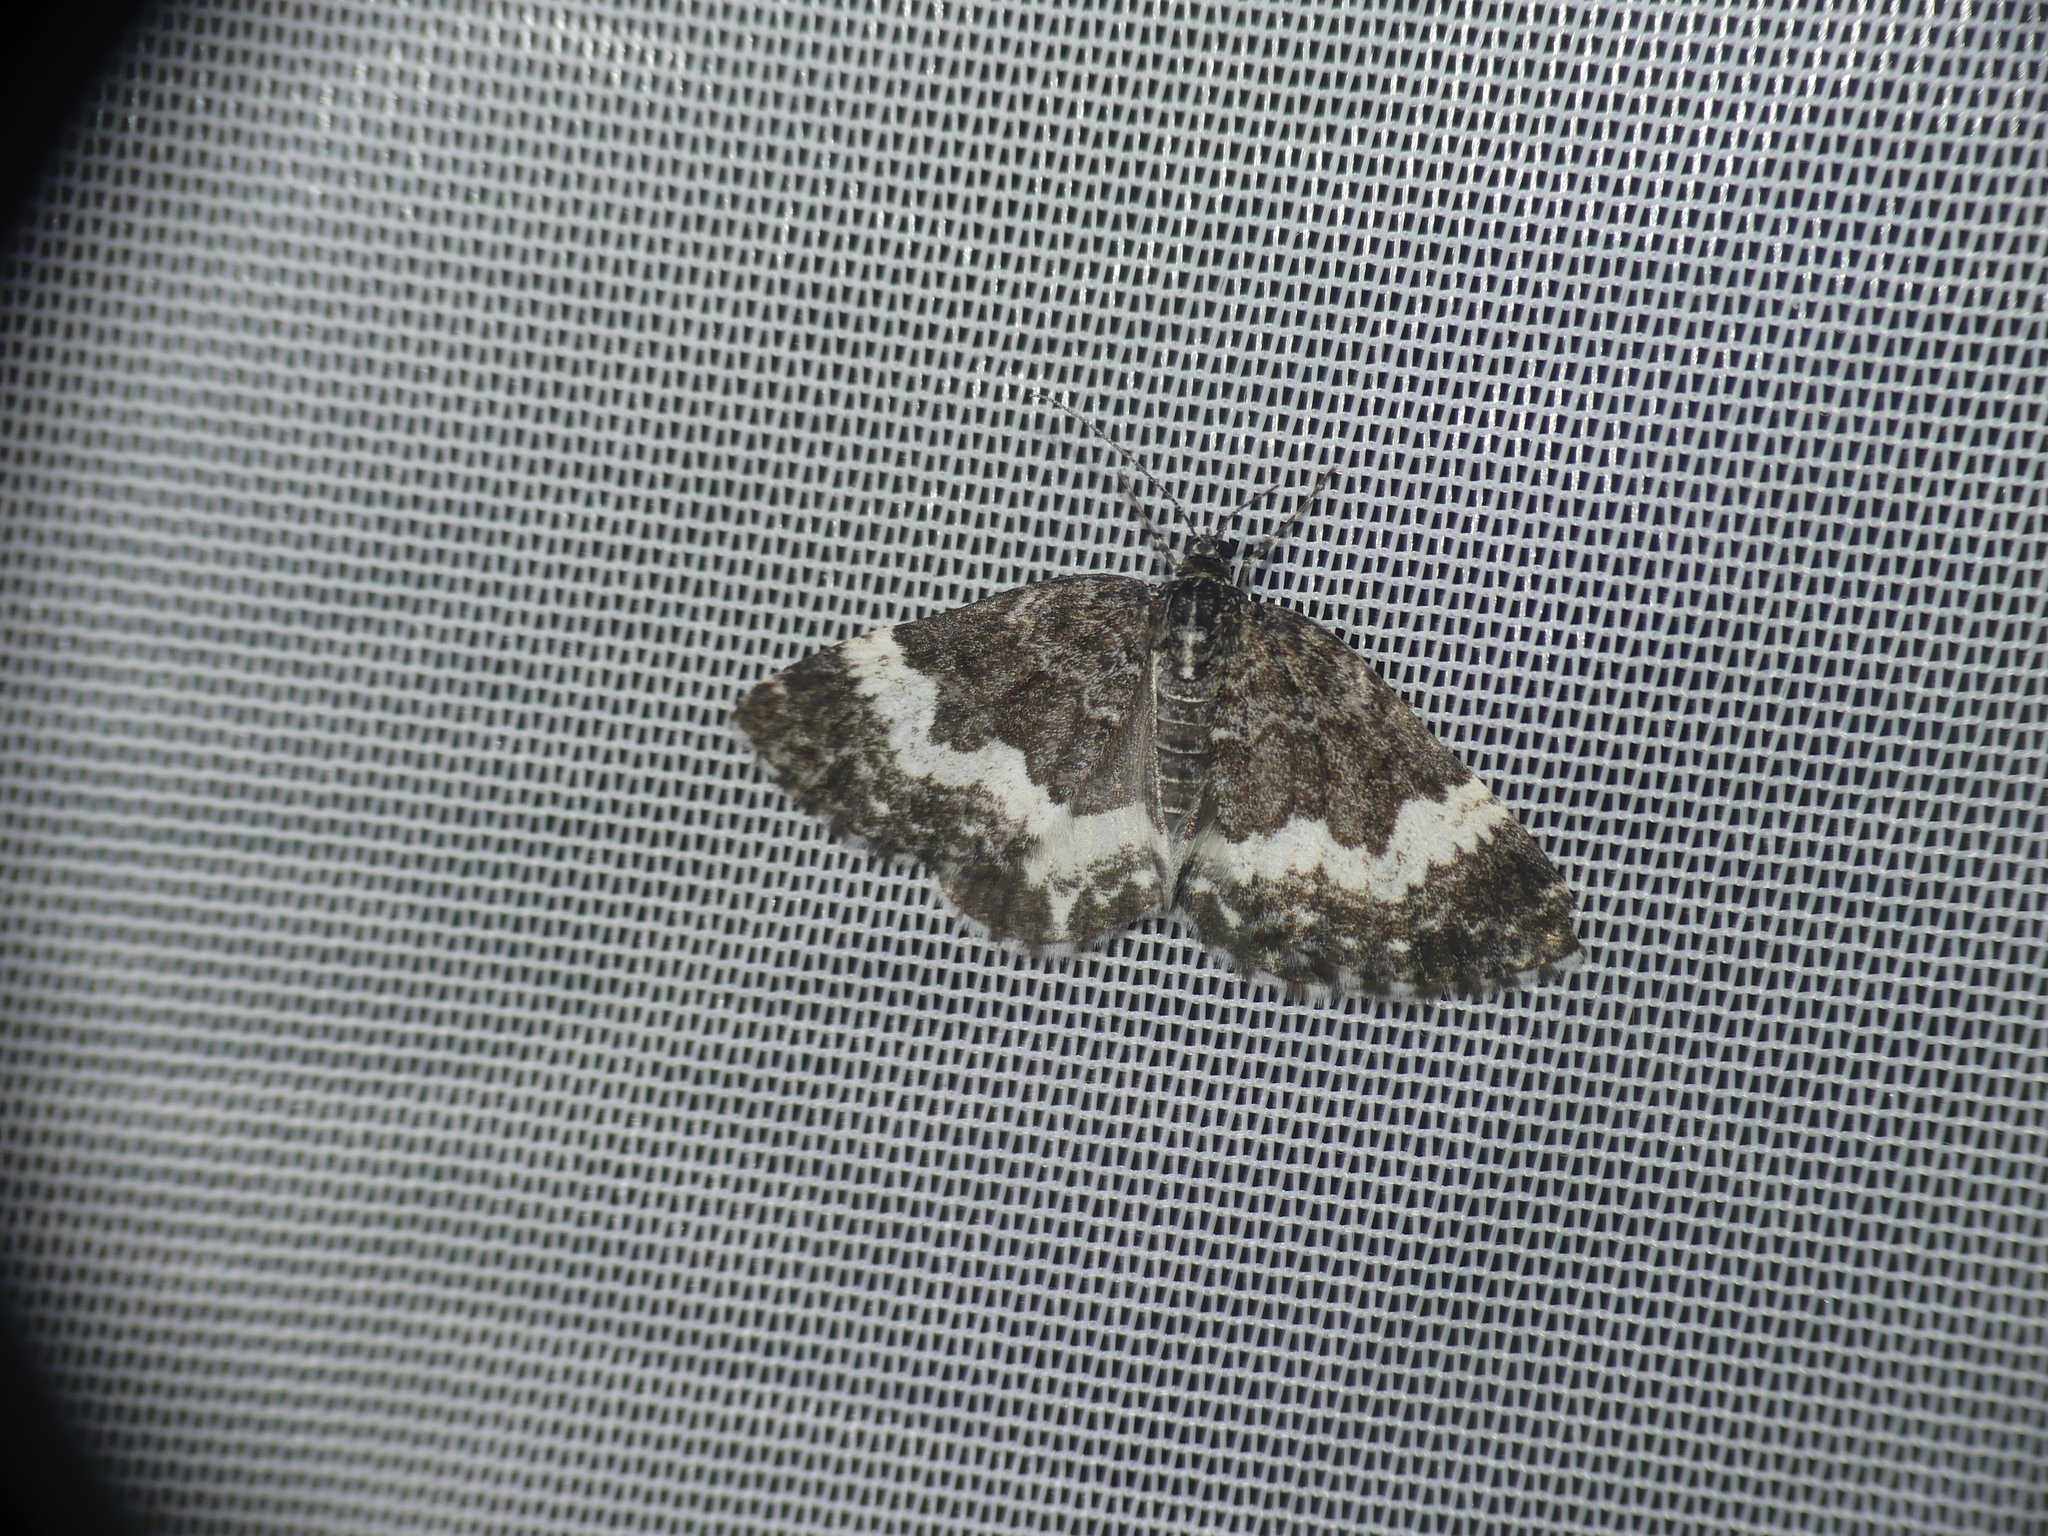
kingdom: Animalia
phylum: Arthropoda
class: Insecta
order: Lepidoptera
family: Geometridae
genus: Spargania
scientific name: Spargania luctuata
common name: White-banded carpet
